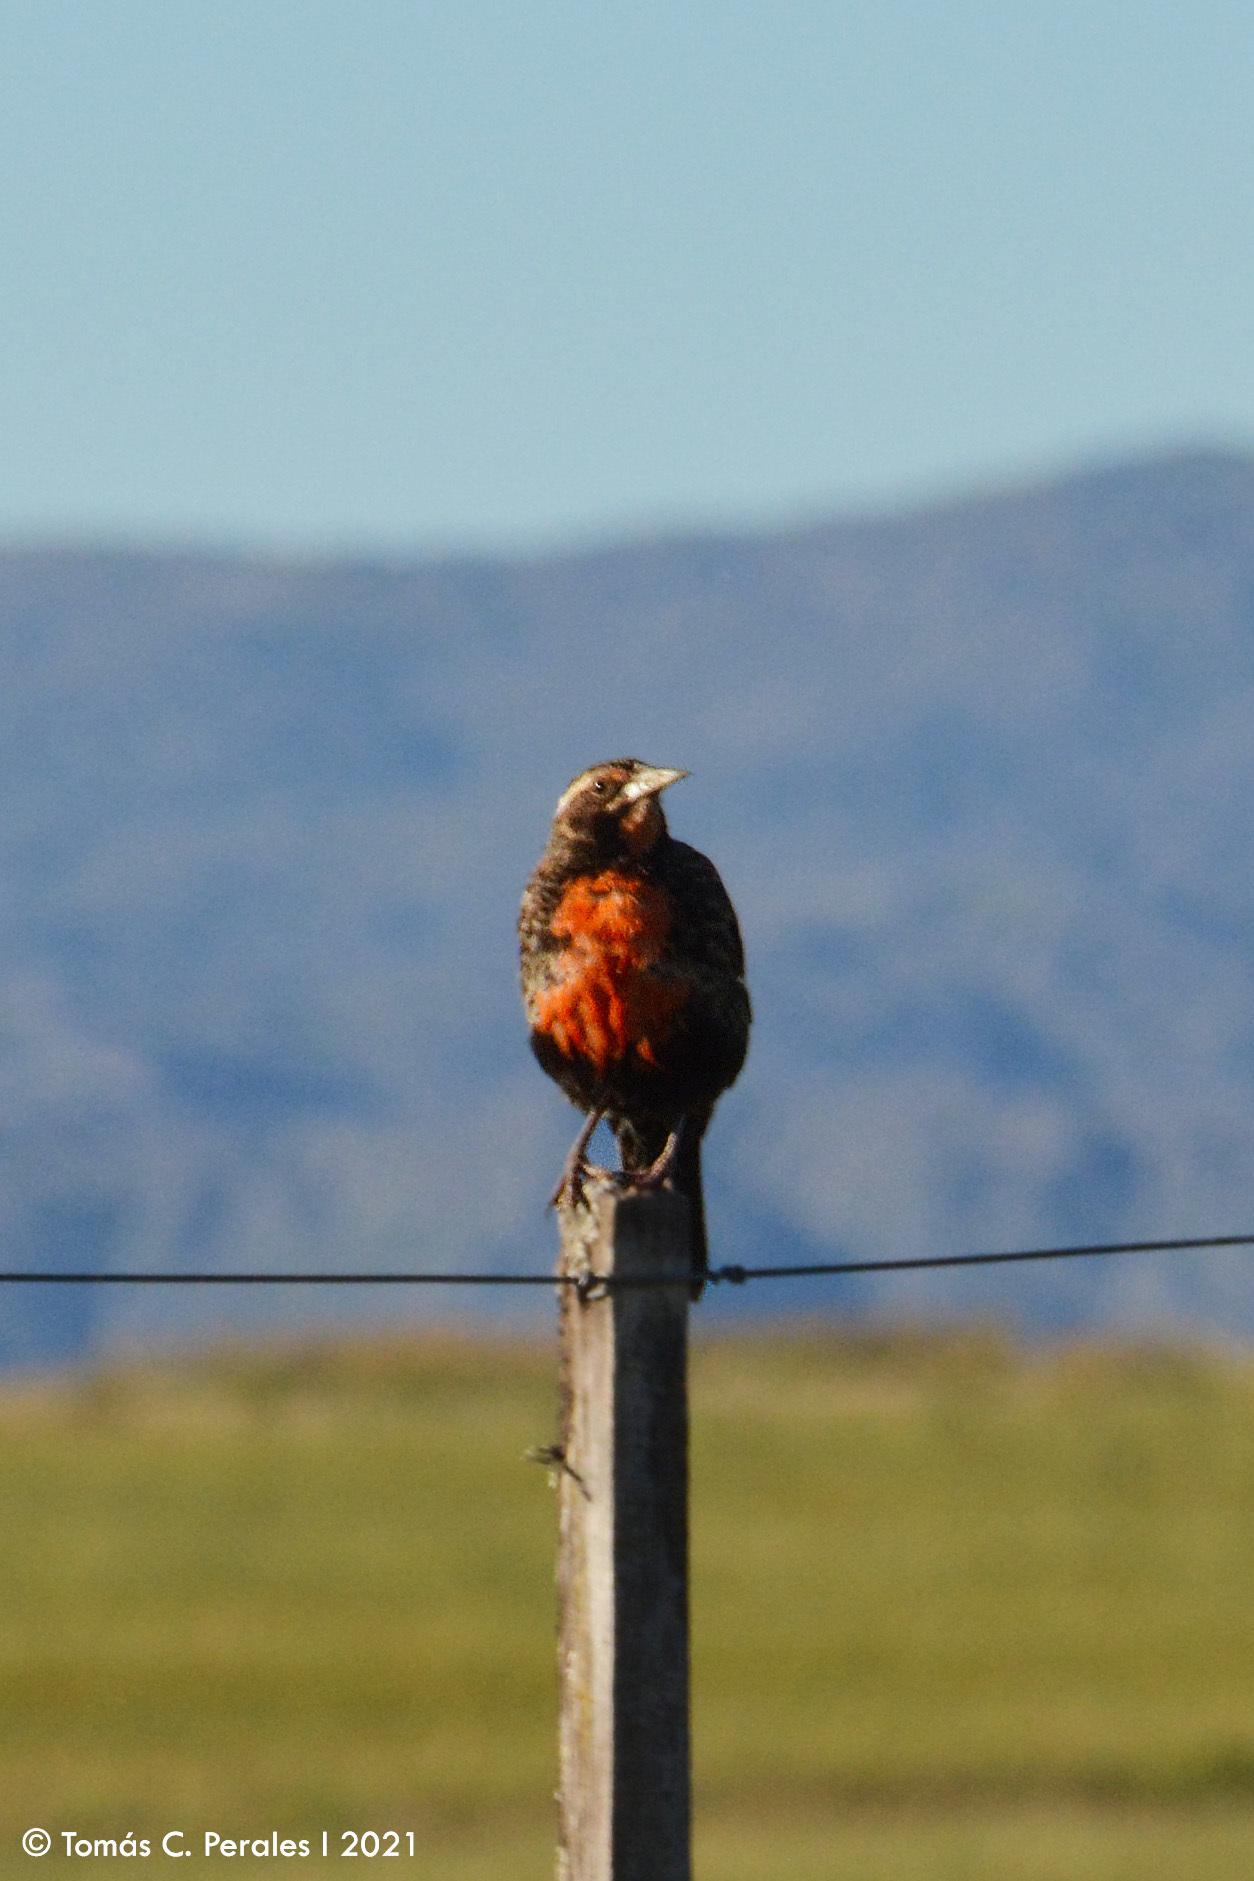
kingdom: Animalia
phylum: Chordata
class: Aves
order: Passeriformes
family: Icteridae
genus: Sturnella
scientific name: Sturnella loyca
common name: Long-tailed meadowlark
